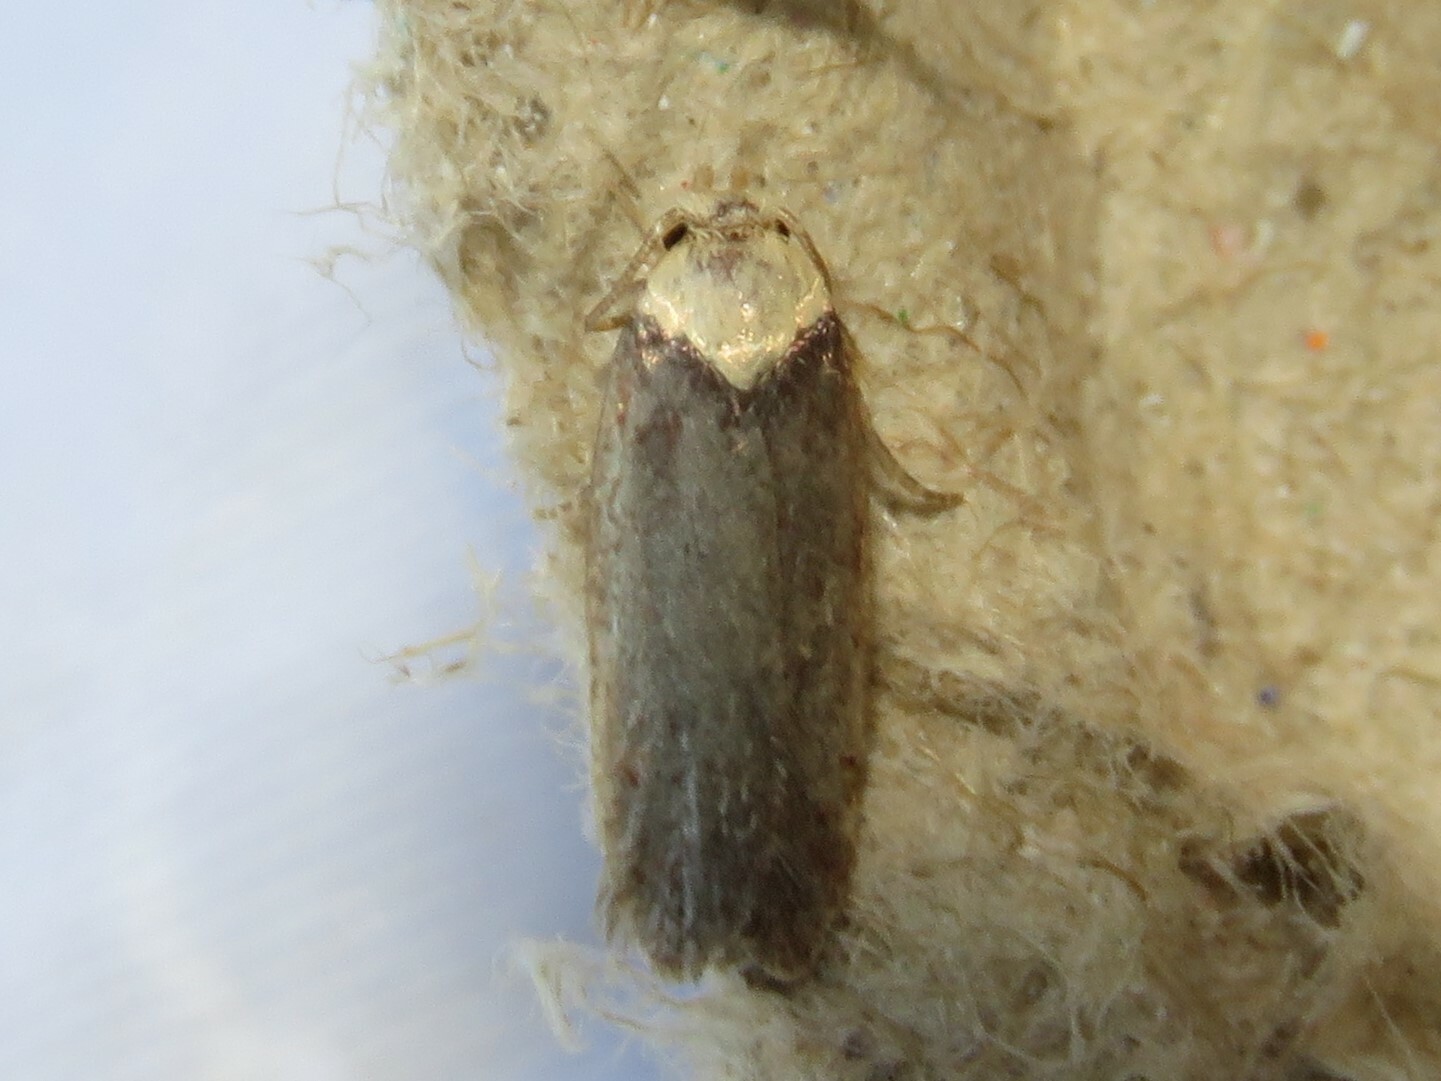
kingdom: Animalia
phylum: Arthropoda
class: Insecta
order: Lepidoptera
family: Depressariidae
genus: Depressaria
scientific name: Depressaria depressana
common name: Lost flat-body
